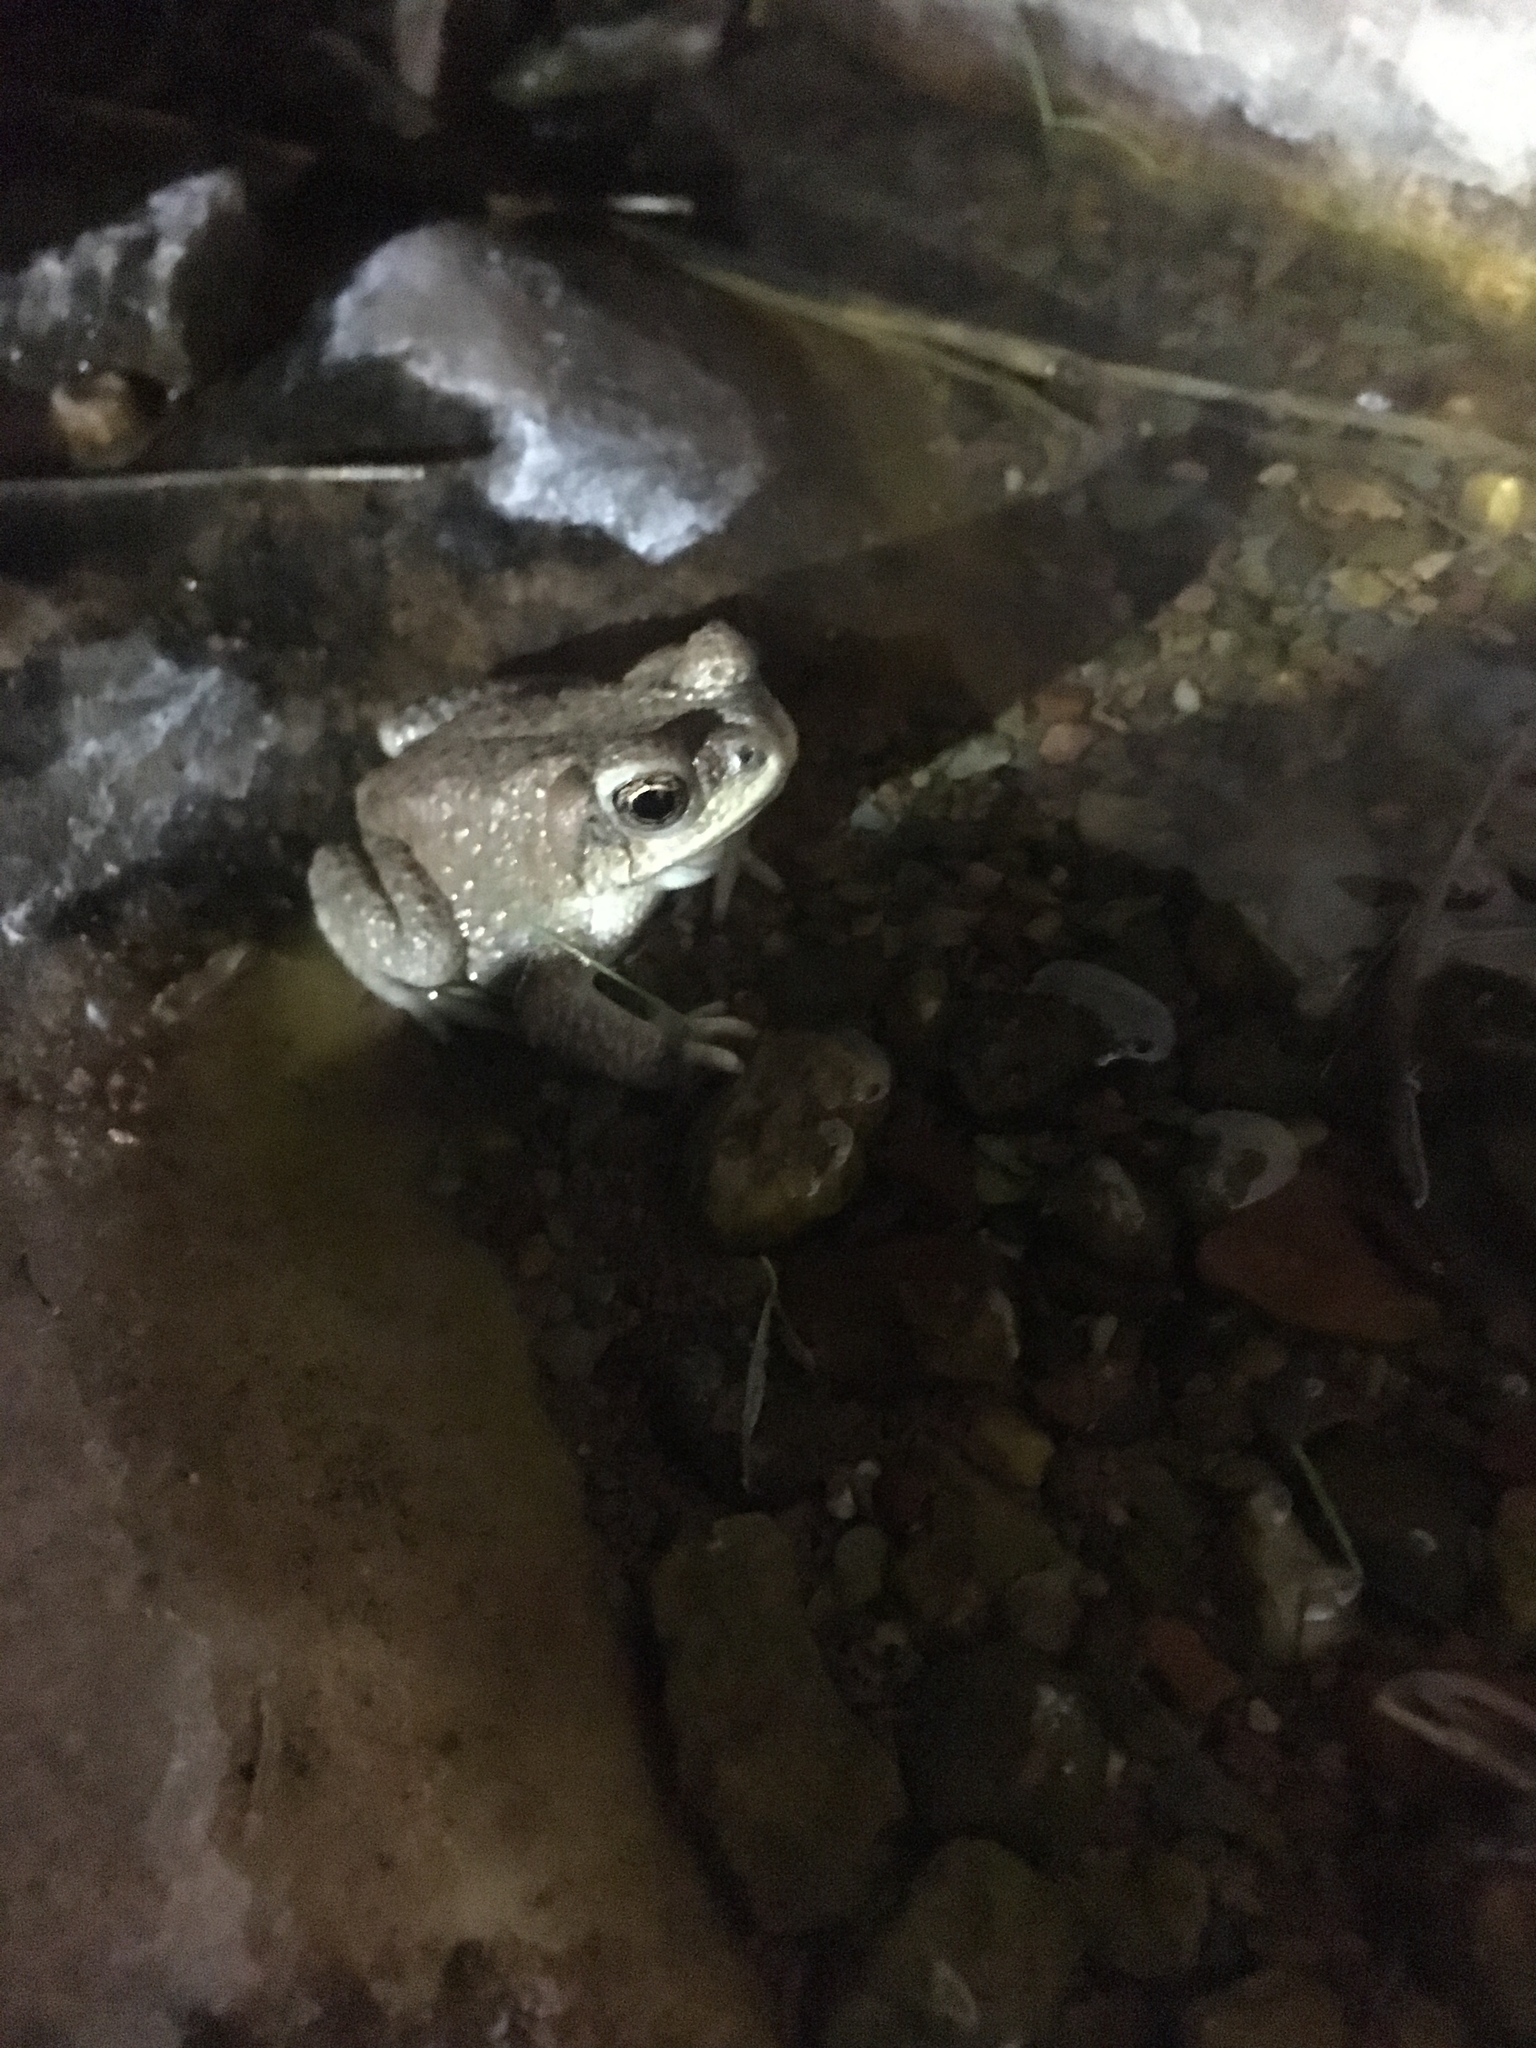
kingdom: Animalia
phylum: Chordata
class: Amphibia
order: Anura
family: Bufonidae
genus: Anaxyrus
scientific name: Anaxyrus punctatus
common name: Red-spotted toad
